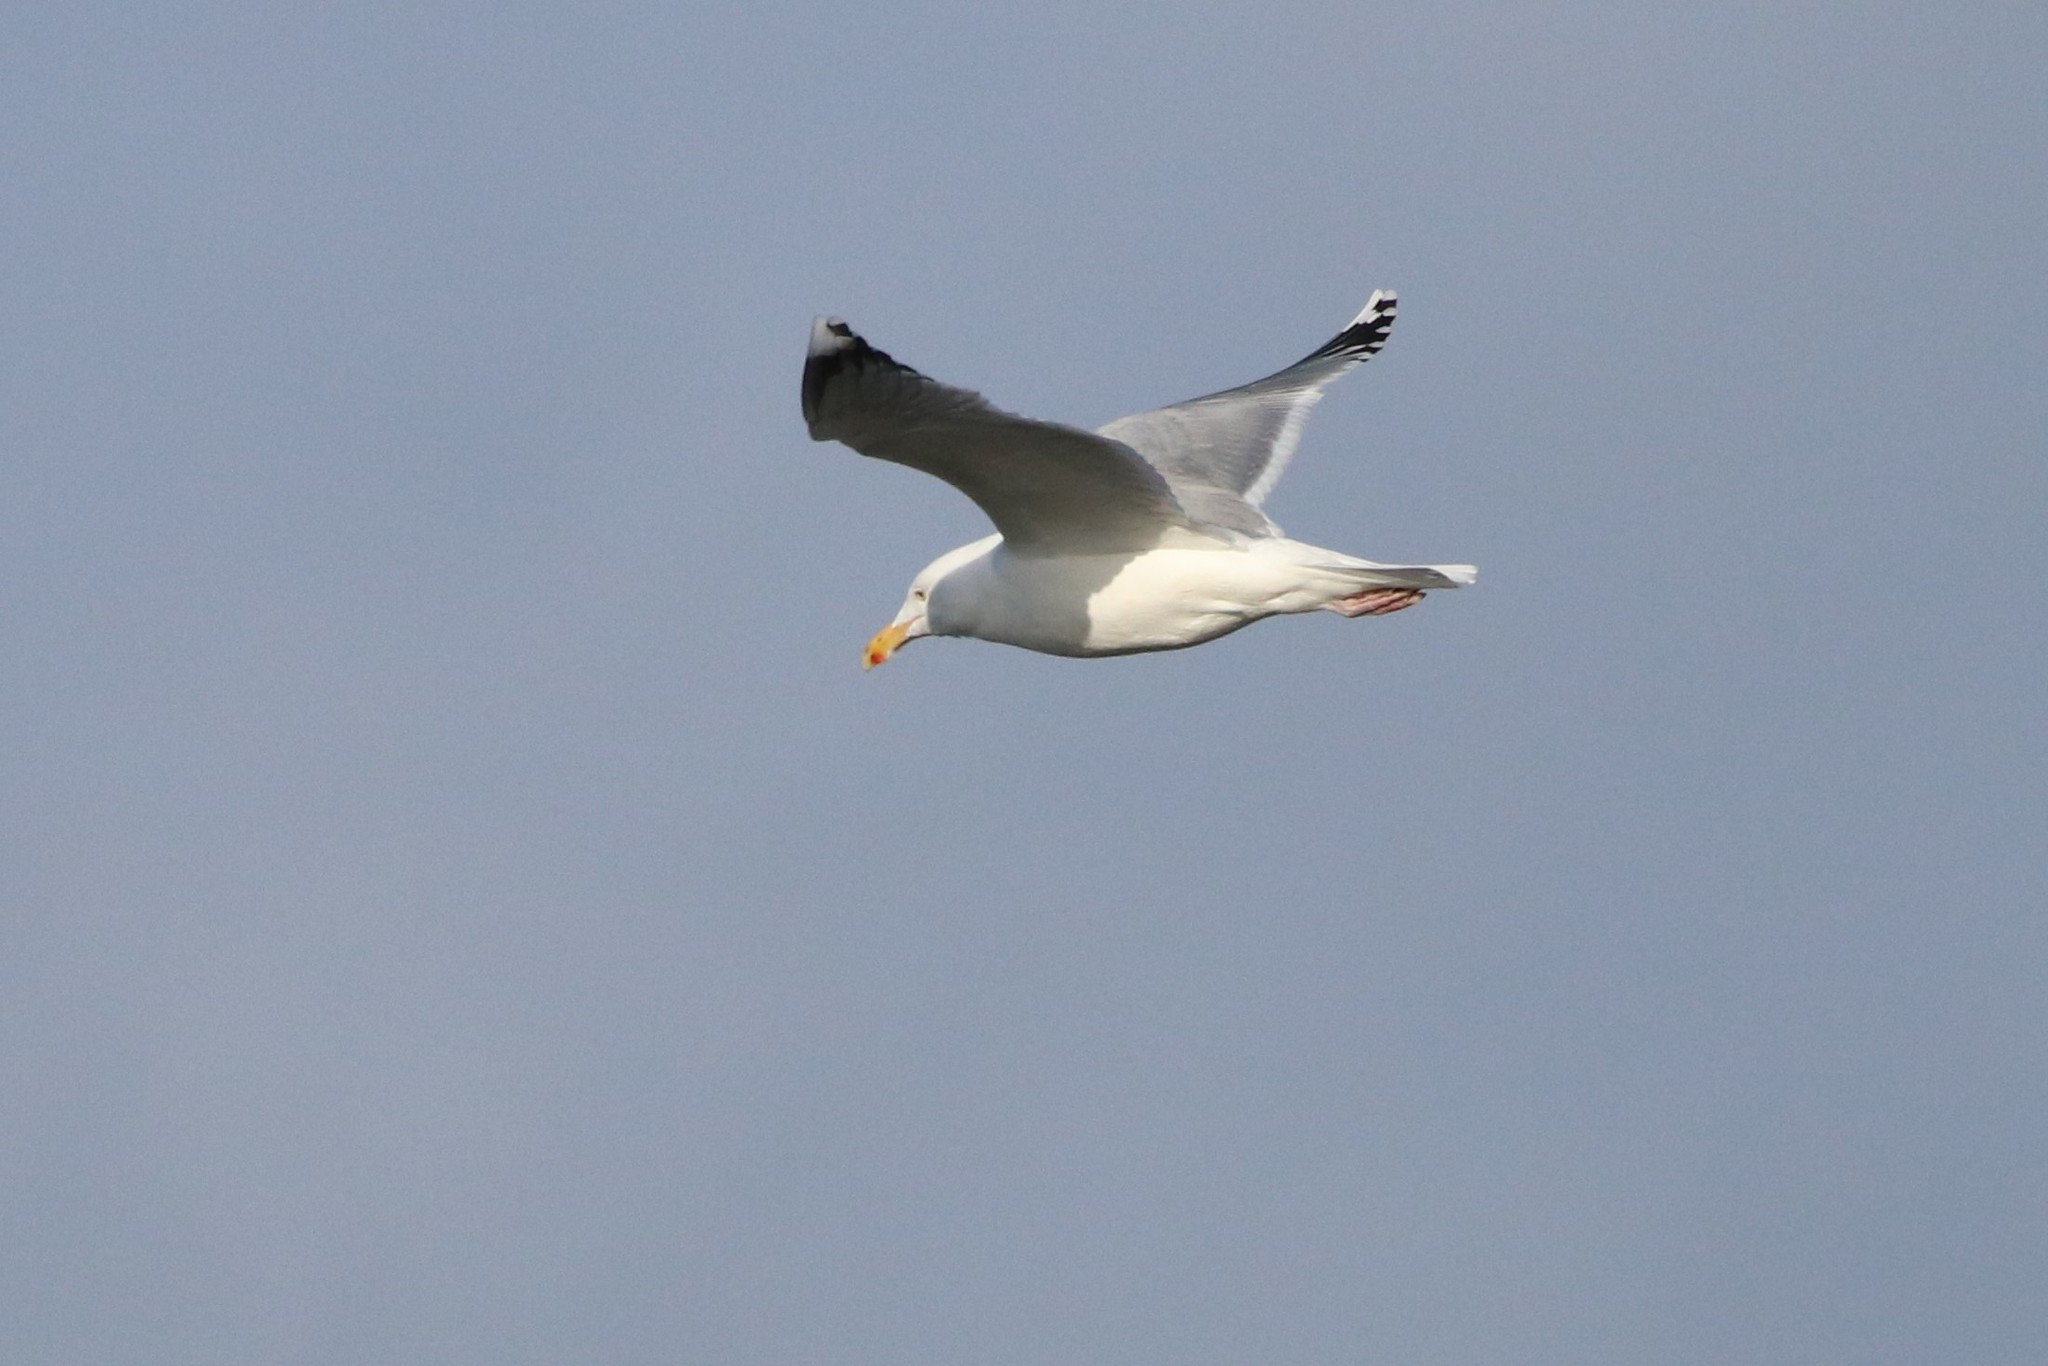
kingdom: Animalia
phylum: Chordata
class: Aves
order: Charadriiformes
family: Laridae
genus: Larus
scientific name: Larus argentatus
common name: Herring gull
